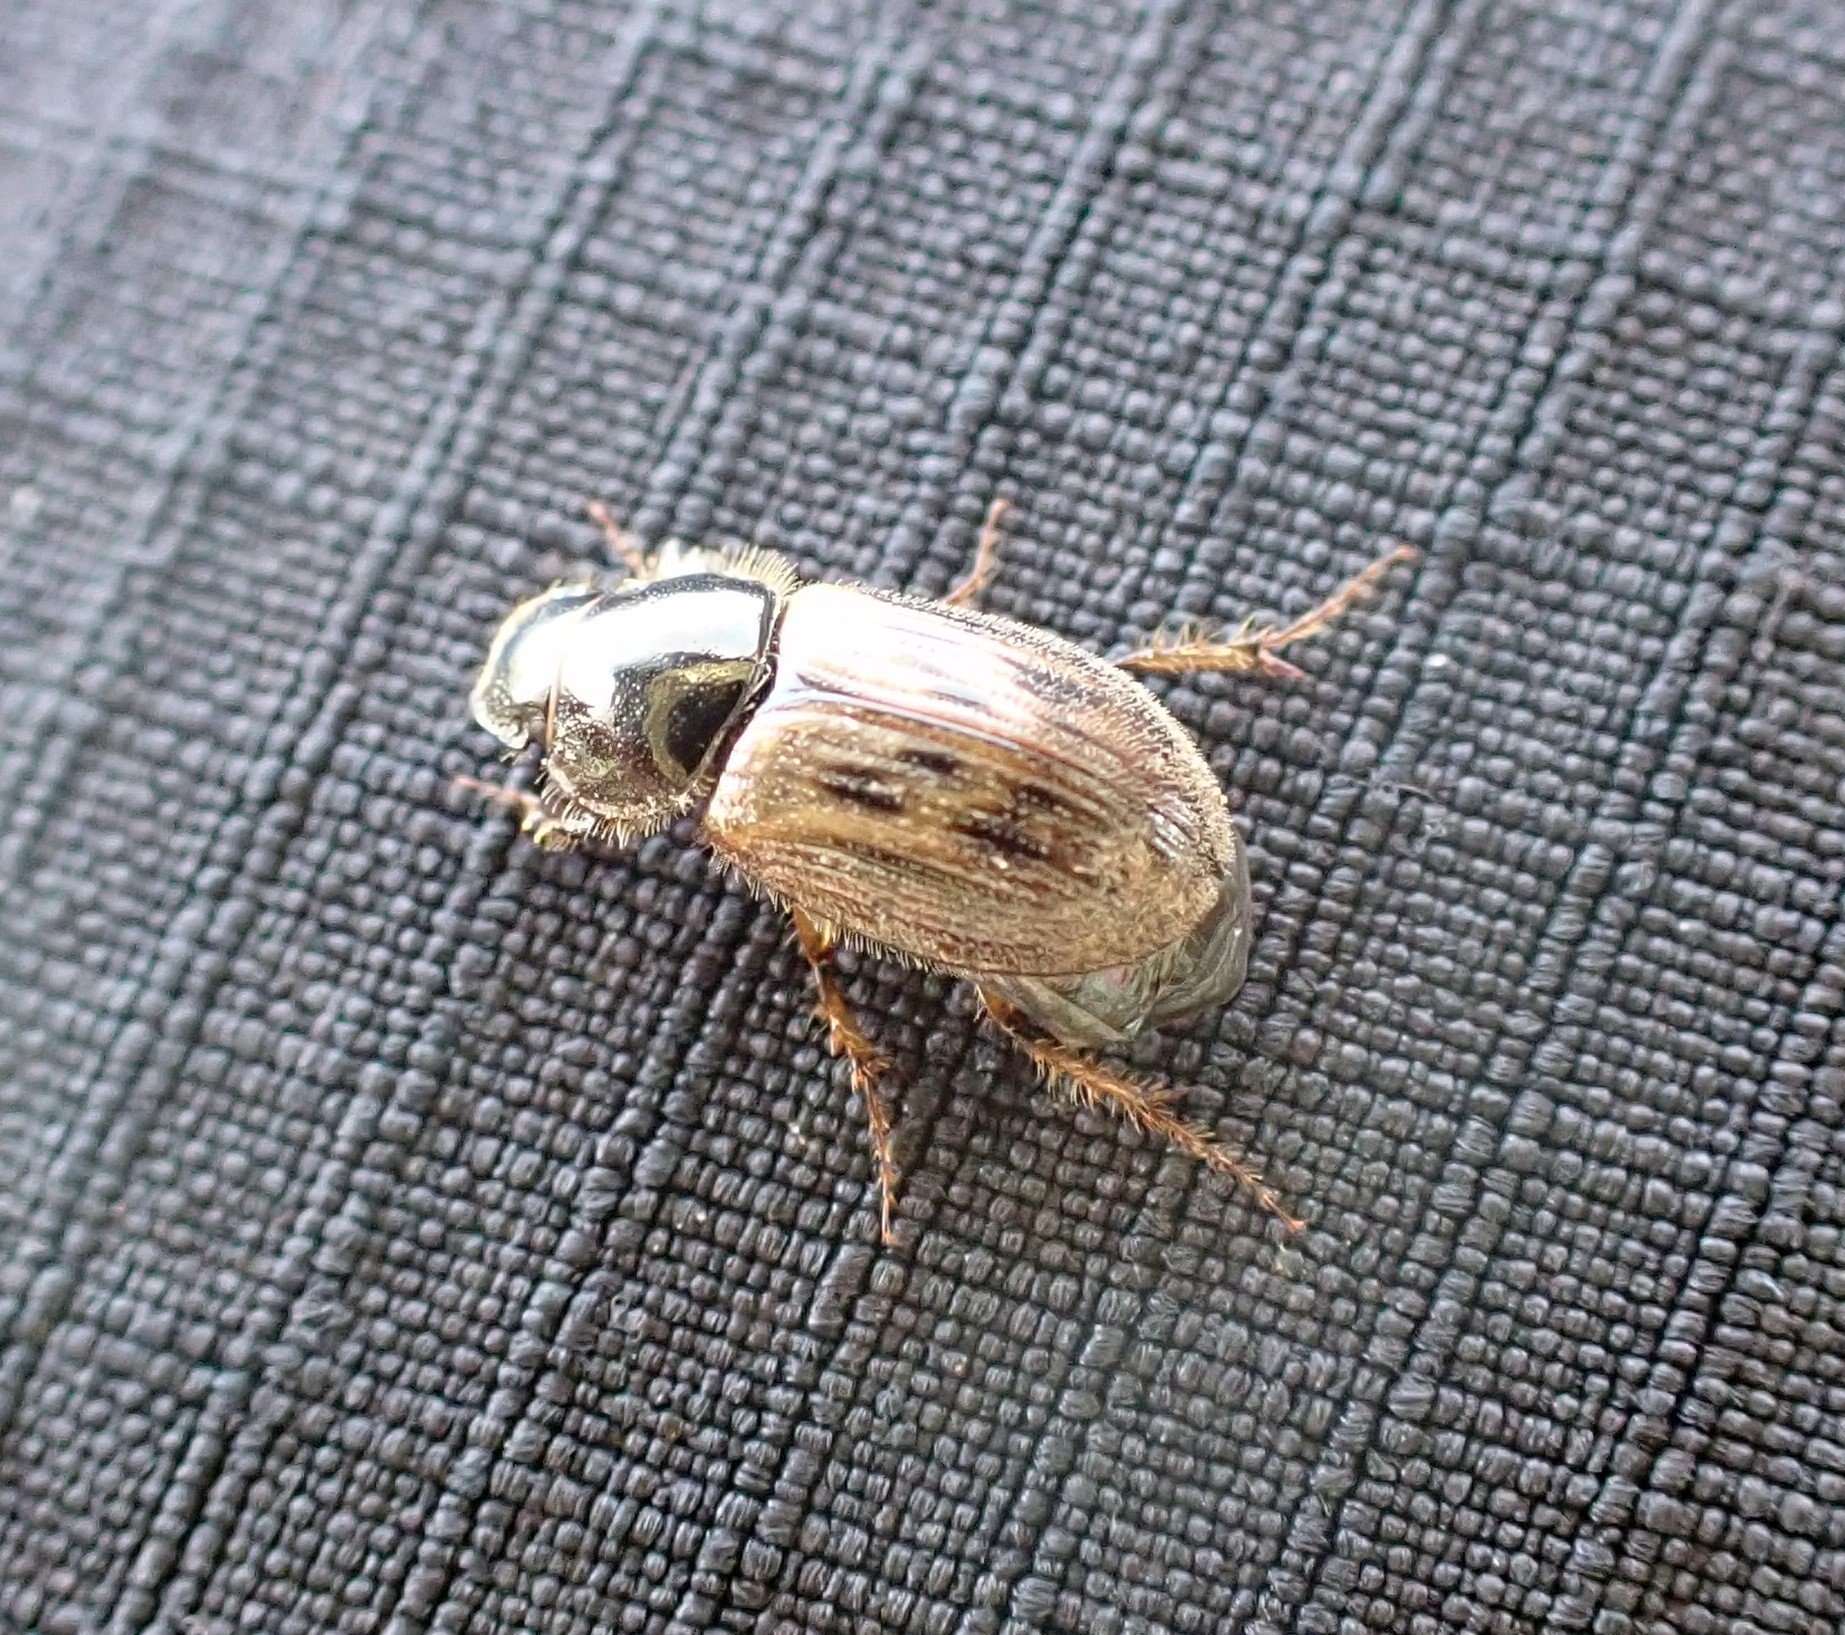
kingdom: Animalia
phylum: Arthropoda
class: Insecta
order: Coleoptera
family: Scarabaeidae
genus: Nimbus
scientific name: Nimbus contaminatus
